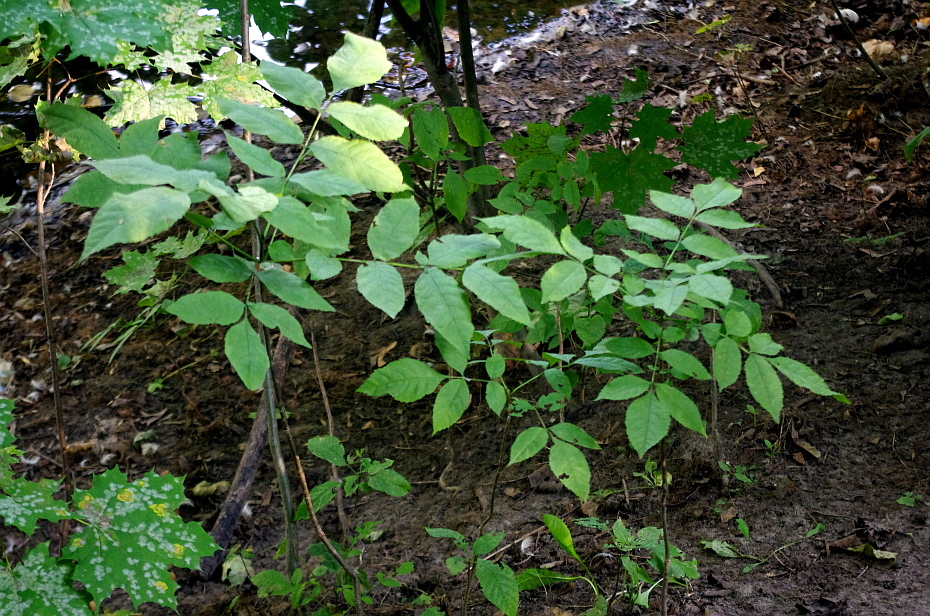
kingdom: Plantae
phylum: Tracheophyta
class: Magnoliopsida
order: Lamiales
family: Oleaceae
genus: Fraxinus
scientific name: Fraxinus pennsylvanica
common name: Green ash
